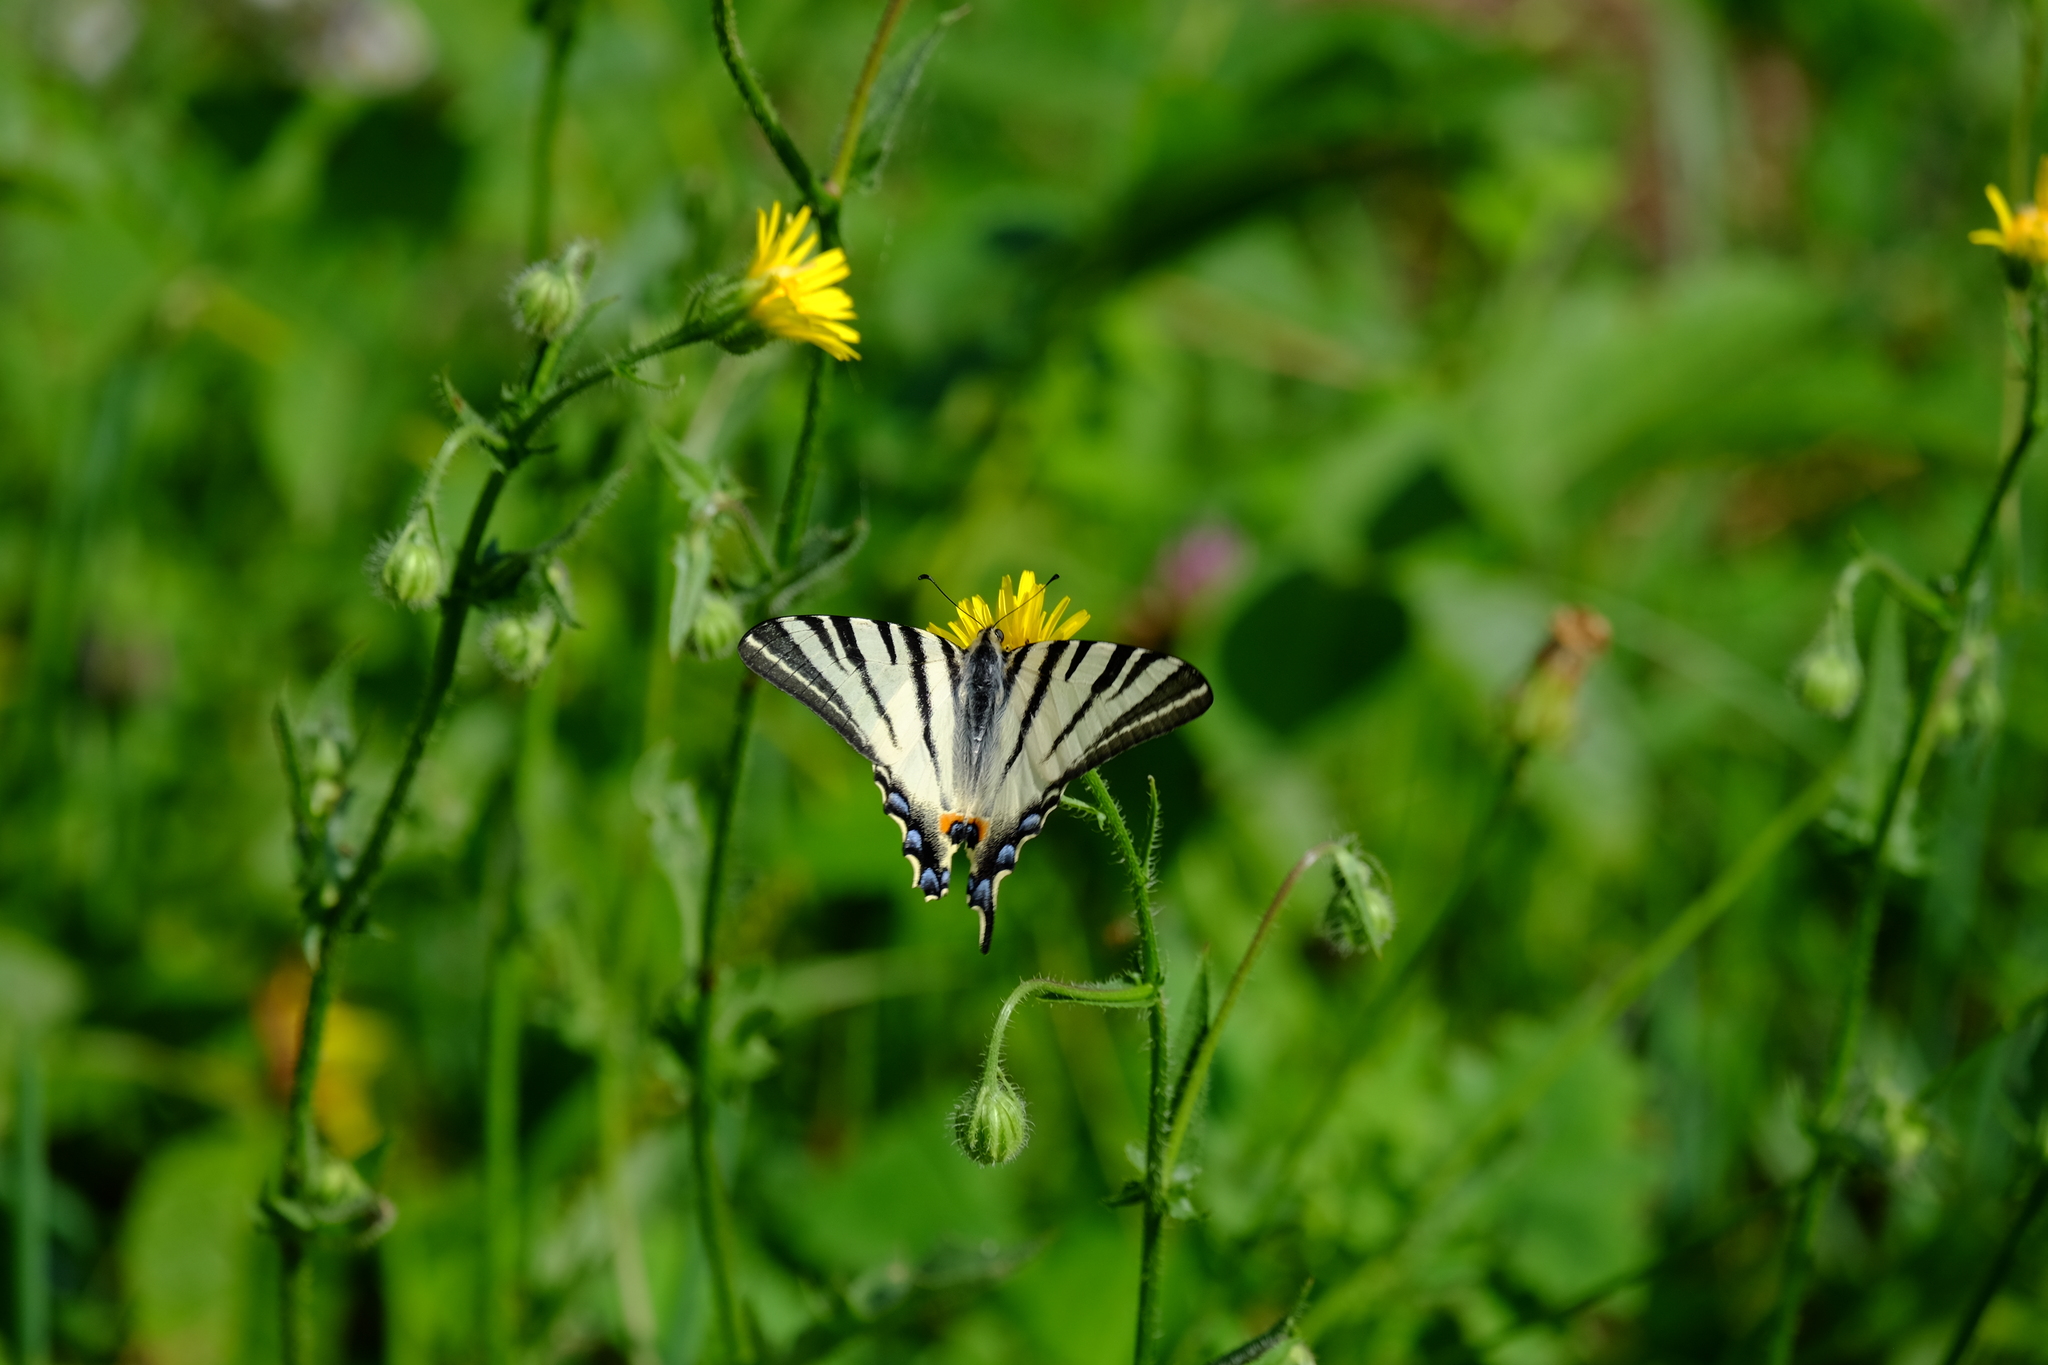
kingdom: Animalia
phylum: Arthropoda
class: Insecta
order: Lepidoptera
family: Papilionidae
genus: Iphiclides
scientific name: Iphiclides podalirius
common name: Scarce swallowtail
